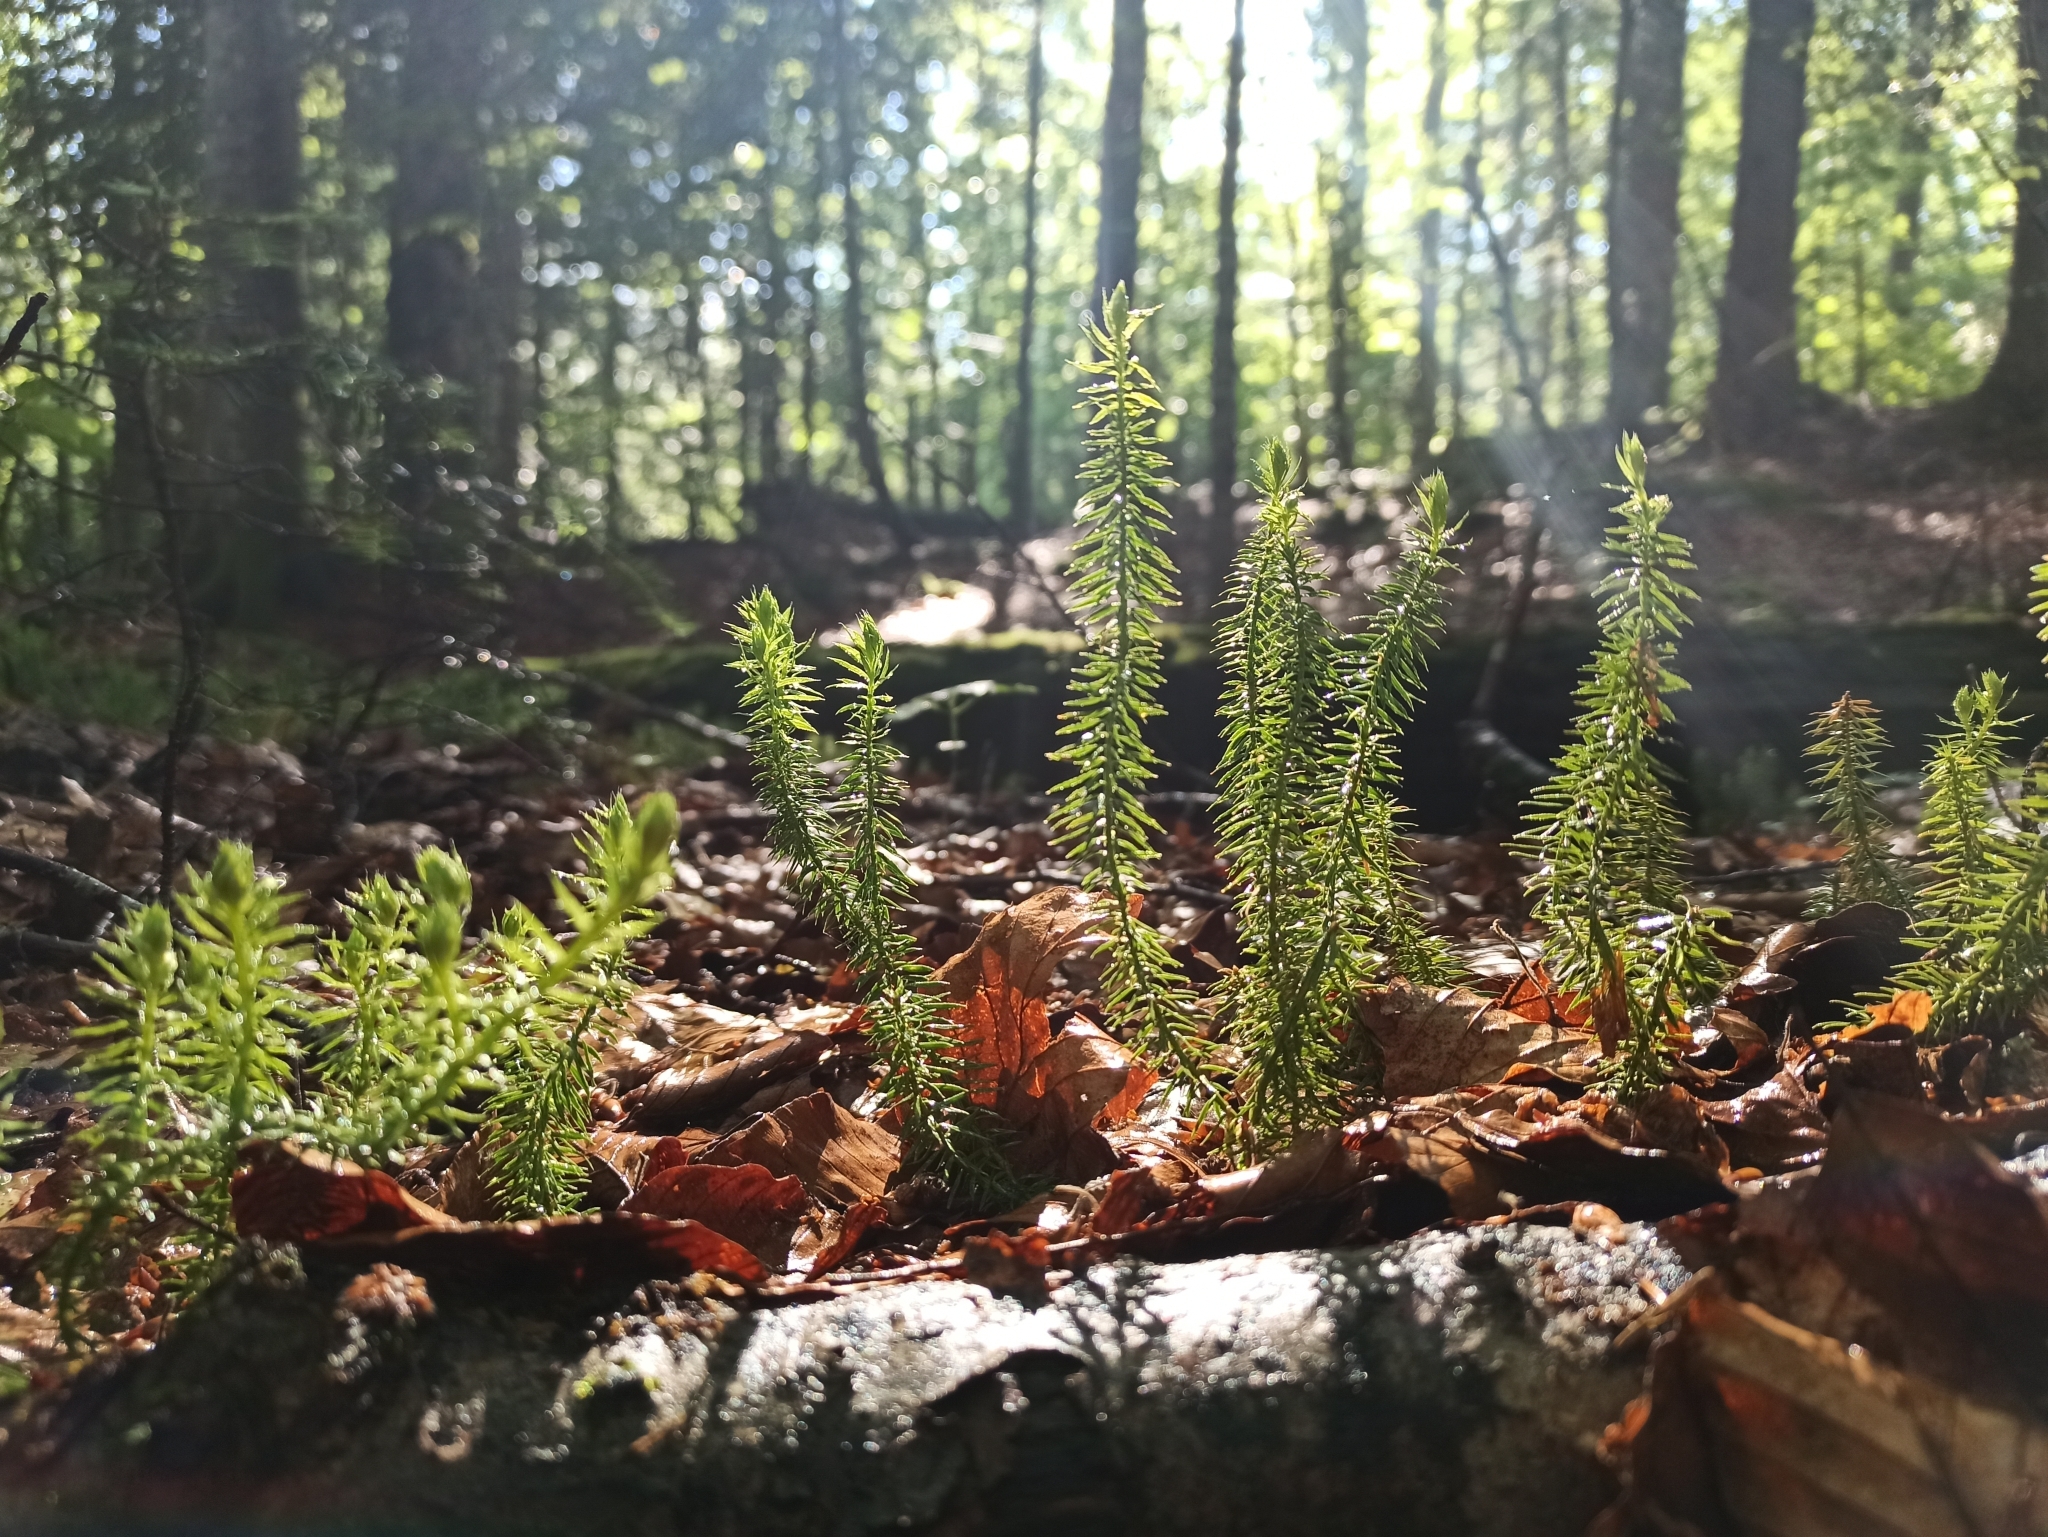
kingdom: Plantae
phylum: Tracheophyta
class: Lycopodiopsida
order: Lycopodiales
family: Lycopodiaceae
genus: Spinulum
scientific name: Spinulum annotinum
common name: Interrupted club-moss
